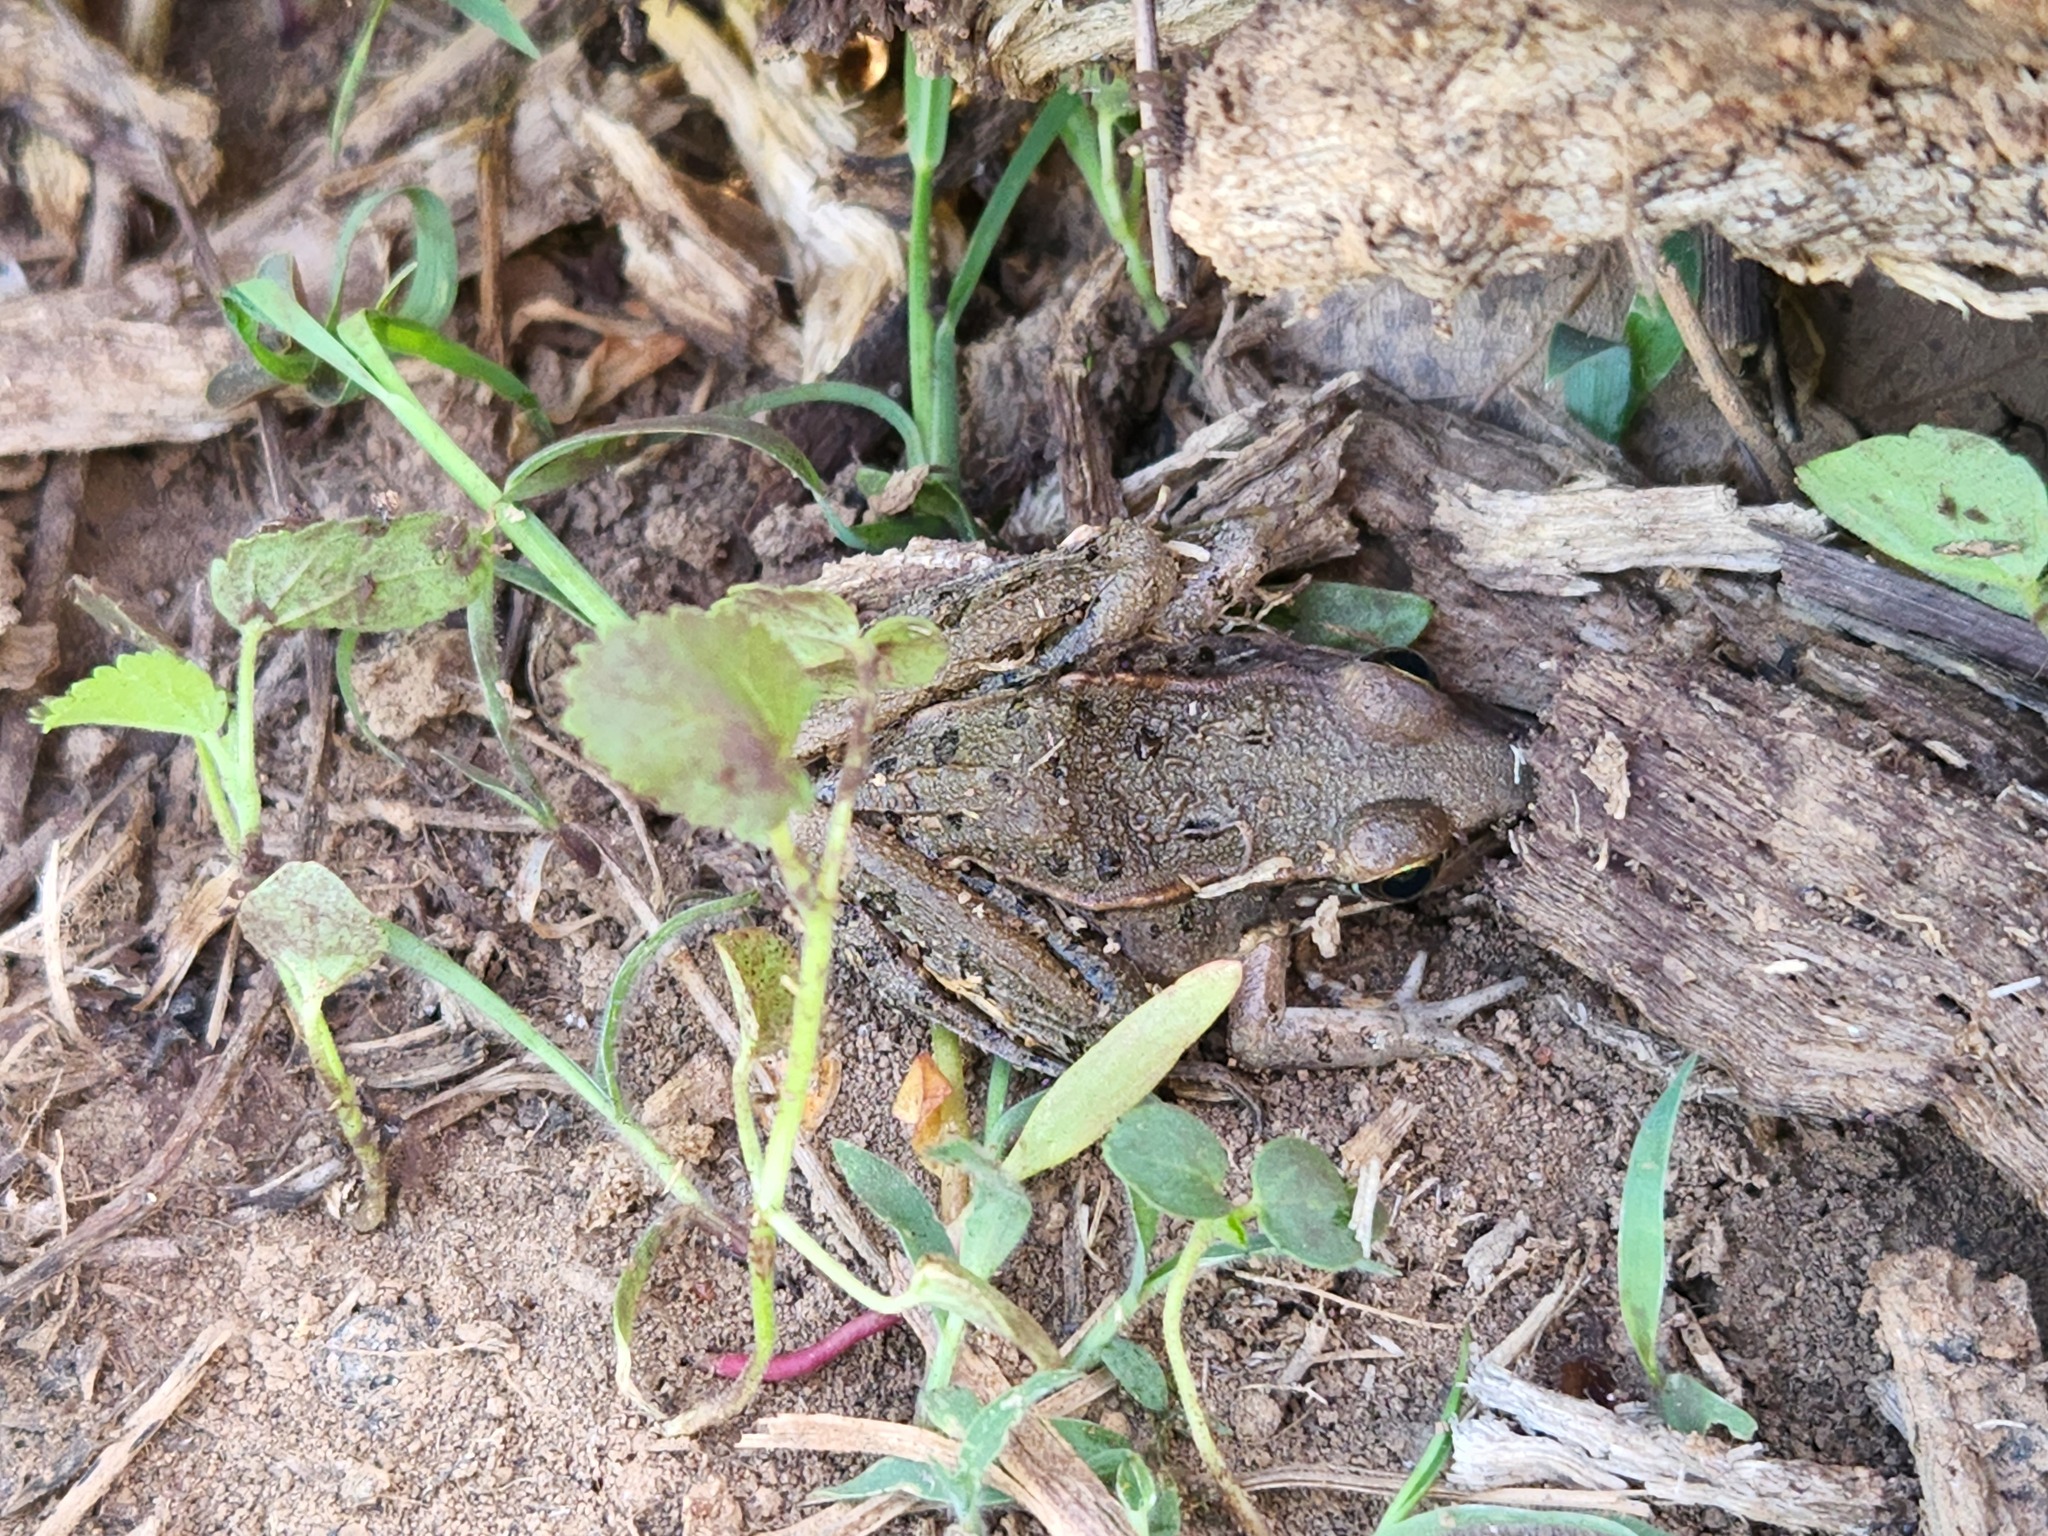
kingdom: Animalia
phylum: Chordata
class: Amphibia
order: Anura
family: Ranidae
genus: Lithobates
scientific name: Lithobates sphenocephalus
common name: Southern leopard frog
